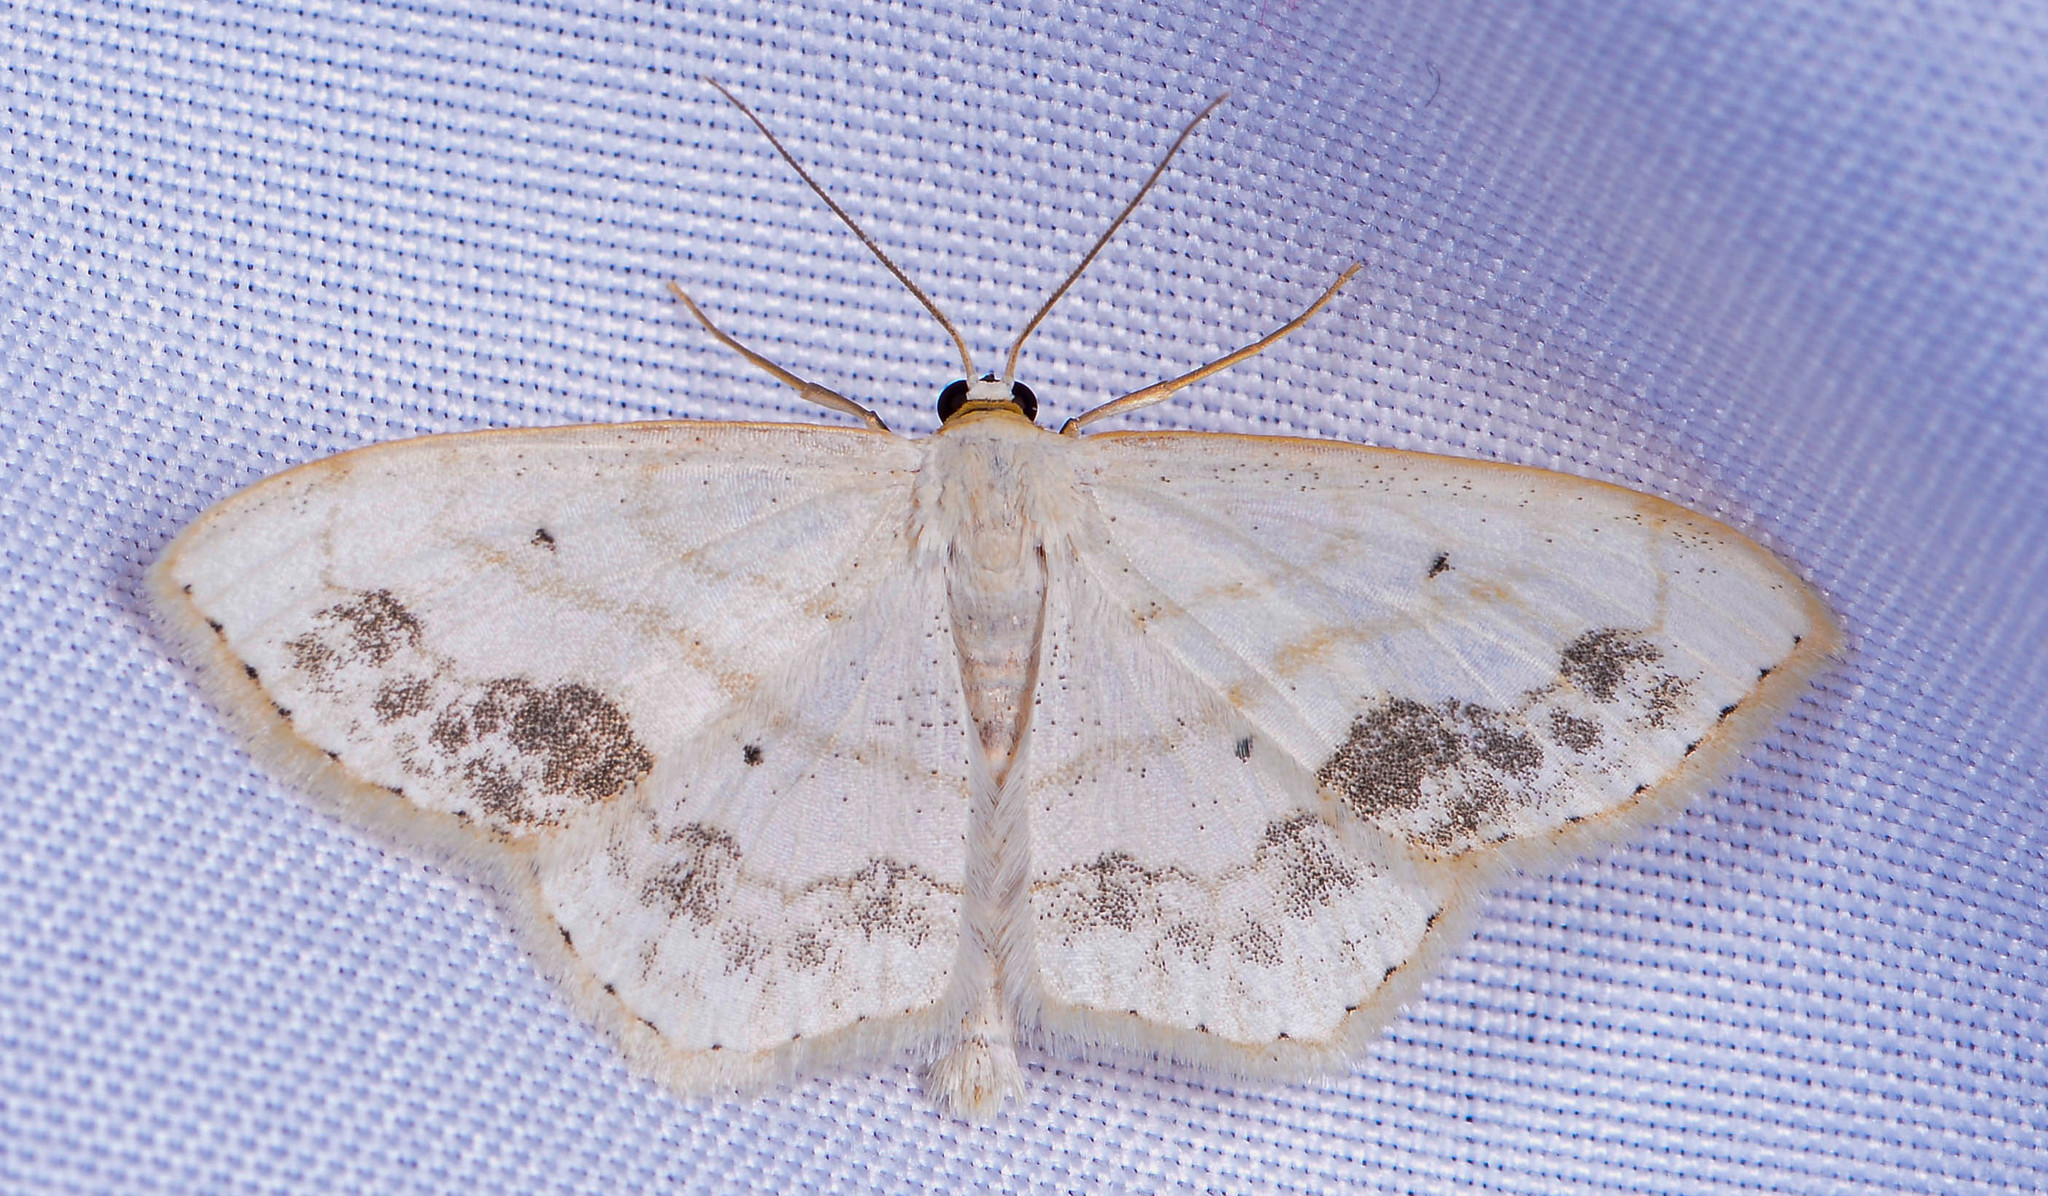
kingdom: Animalia
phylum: Arthropoda
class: Insecta
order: Lepidoptera
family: Geometridae
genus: Scopula
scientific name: Scopula limboundata
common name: Large lace border
